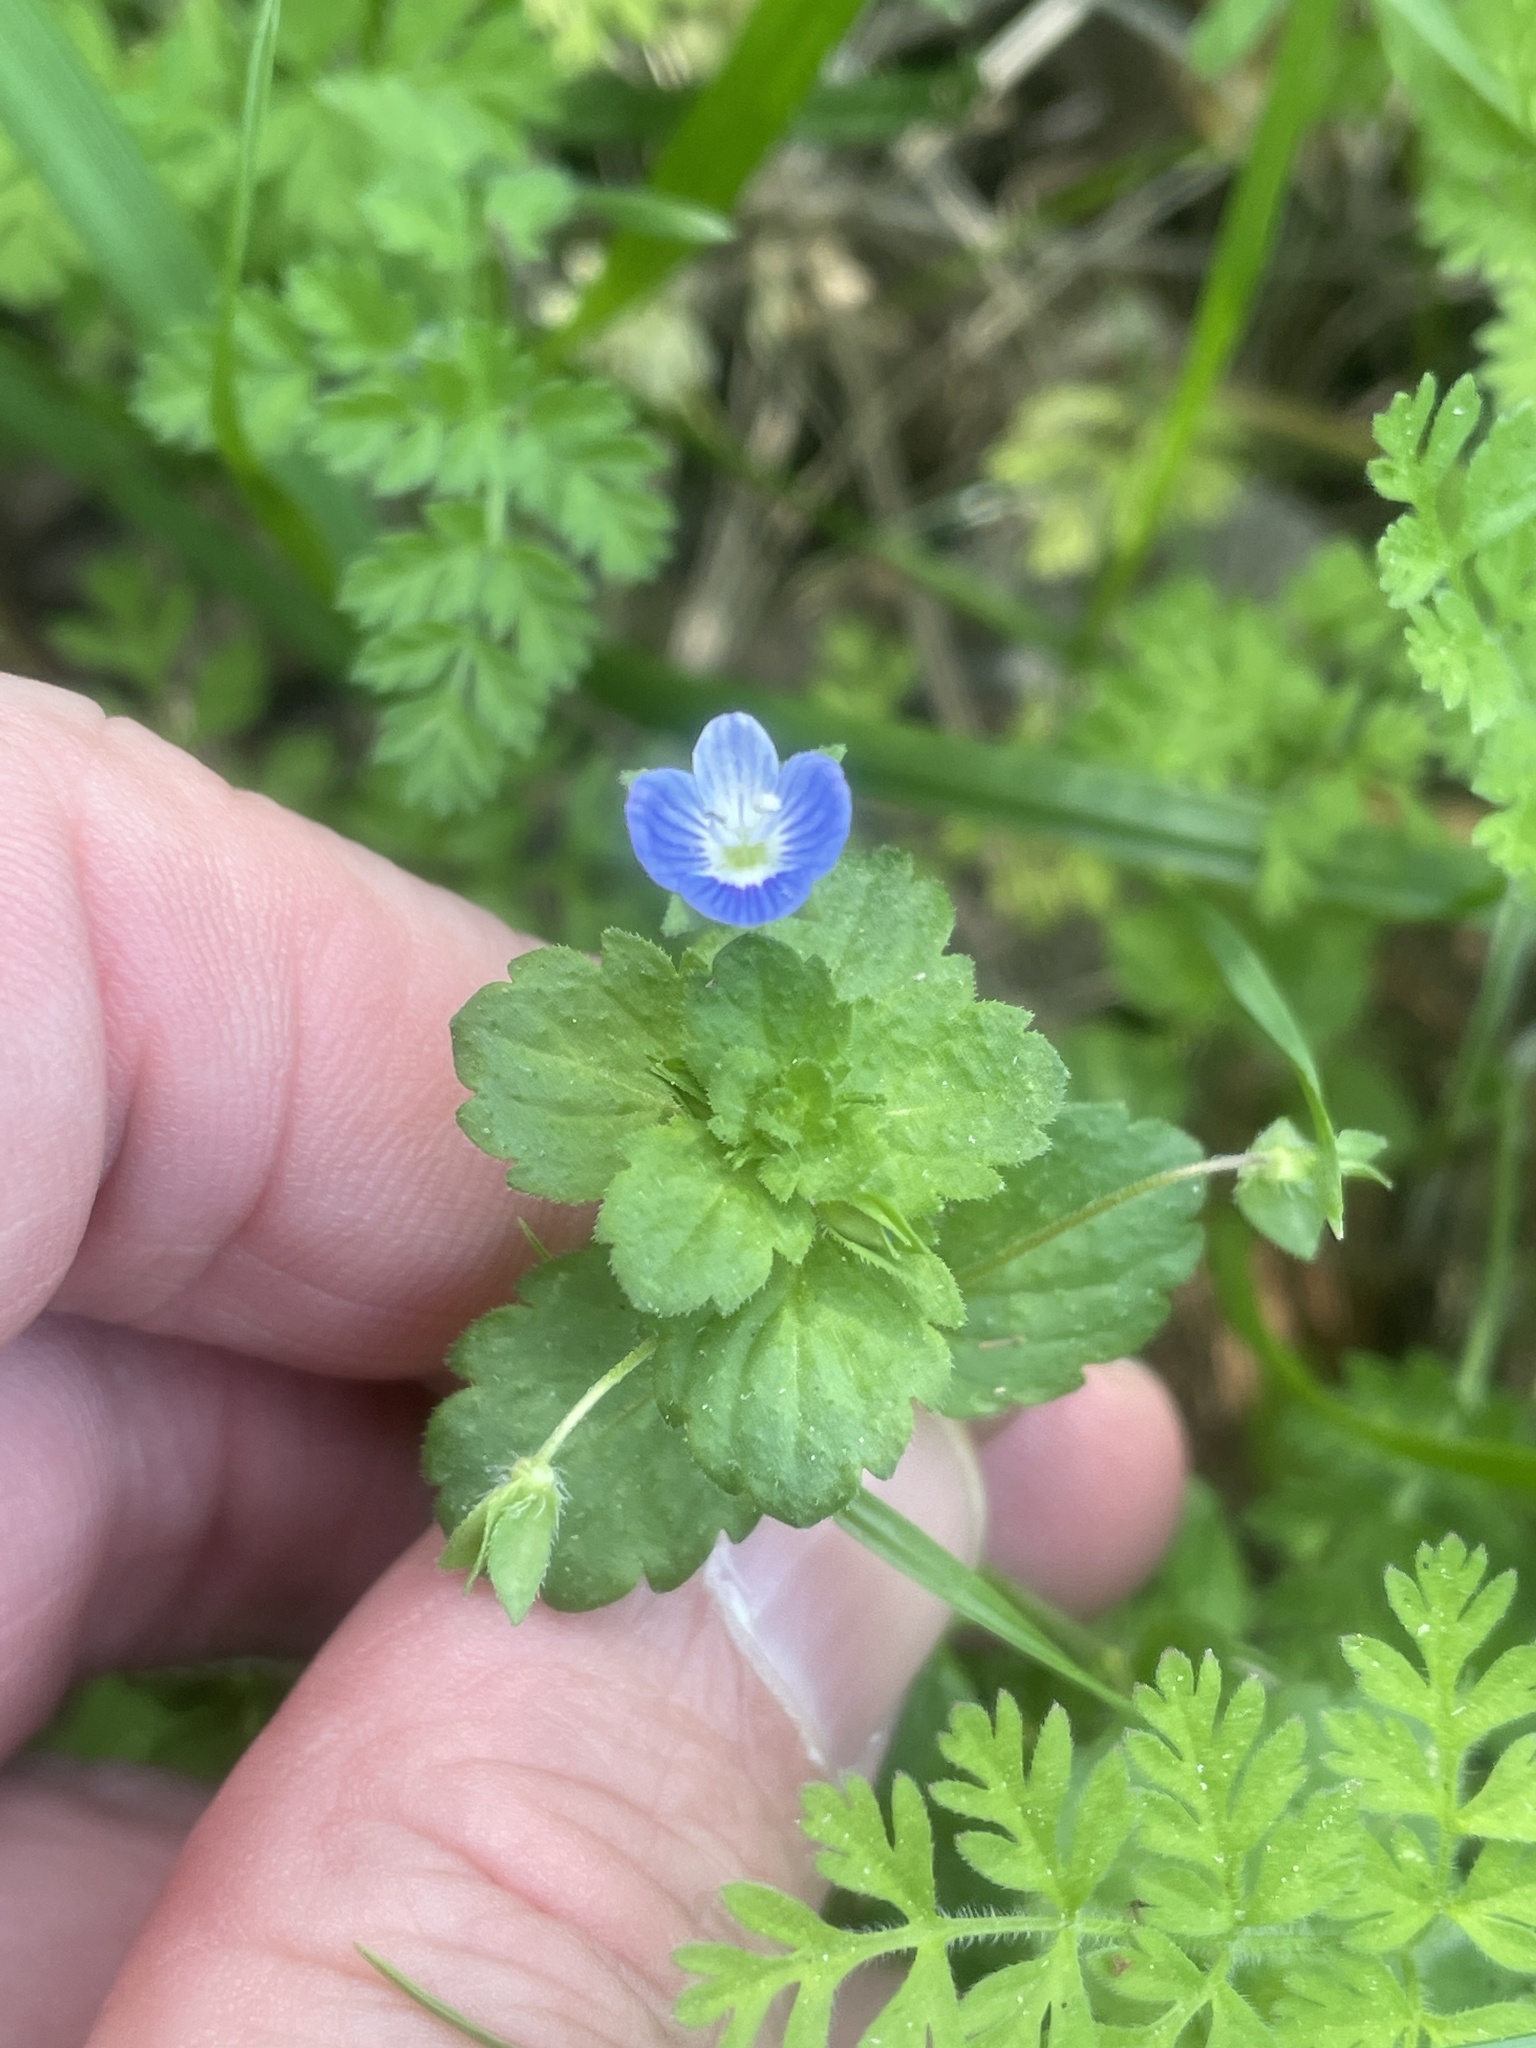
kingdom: Plantae
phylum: Tracheophyta
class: Magnoliopsida
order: Lamiales
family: Plantaginaceae
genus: Veronica
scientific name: Veronica persica
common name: Common field-speedwell
